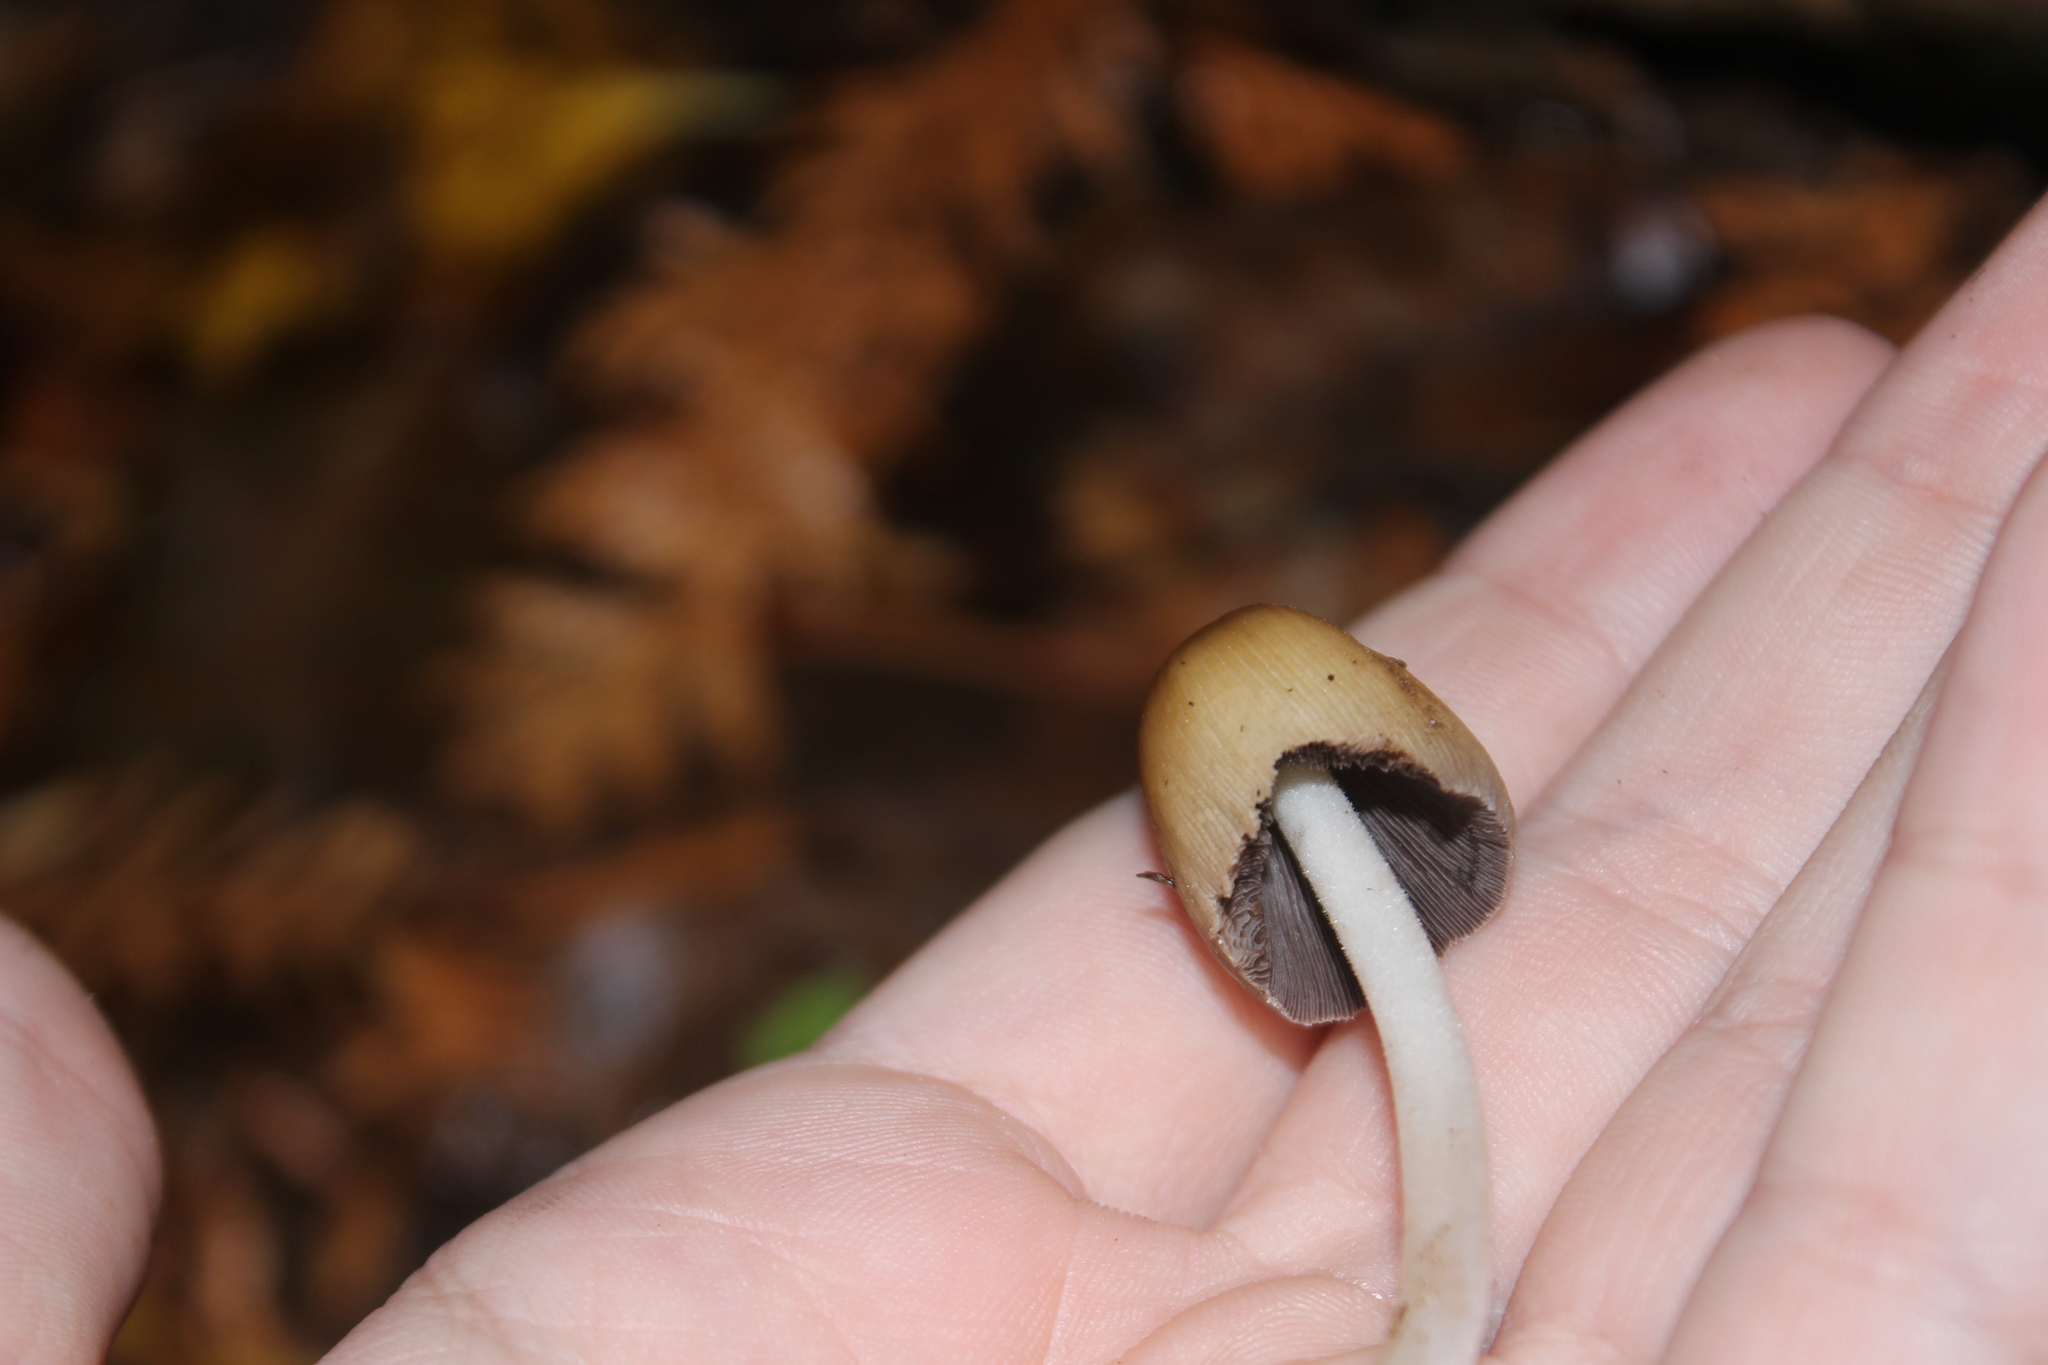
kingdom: Fungi
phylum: Basidiomycota
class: Agaricomycetes
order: Agaricales
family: Psathyrellaceae
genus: Coprinellus
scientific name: Coprinellus micaceus
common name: Glistening ink-cap
